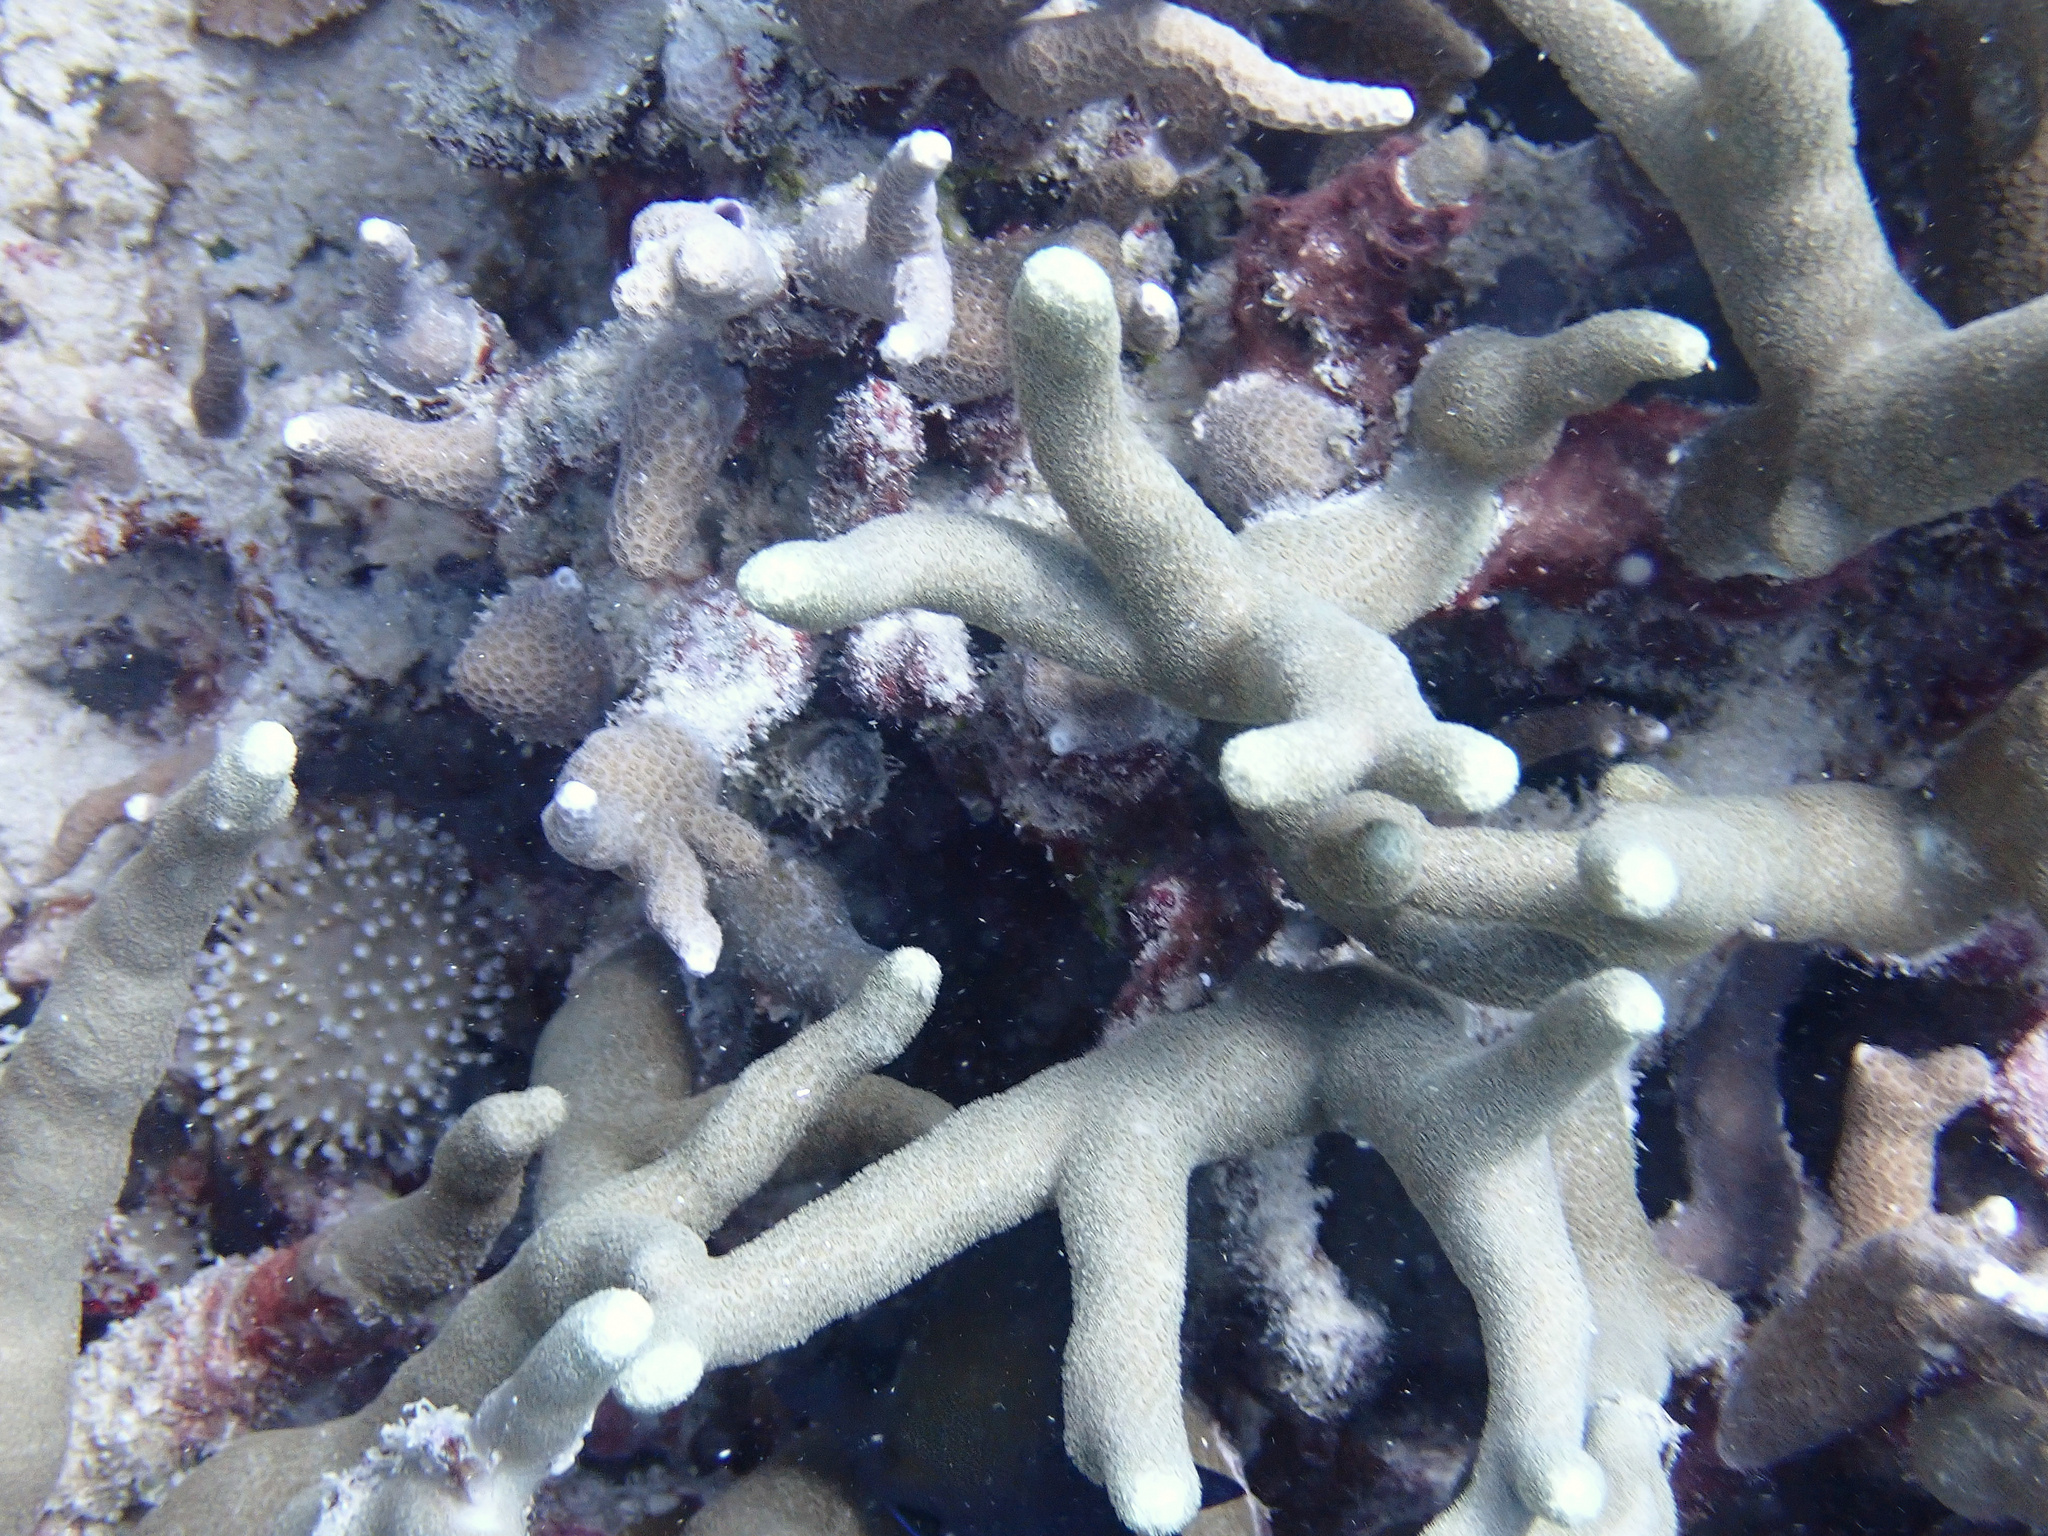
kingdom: Animalia
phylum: Cnidaria
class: Anthozoa
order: Scleractinia
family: Poritidae
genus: Porites
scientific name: Porites cylindrica
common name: Hump coral
